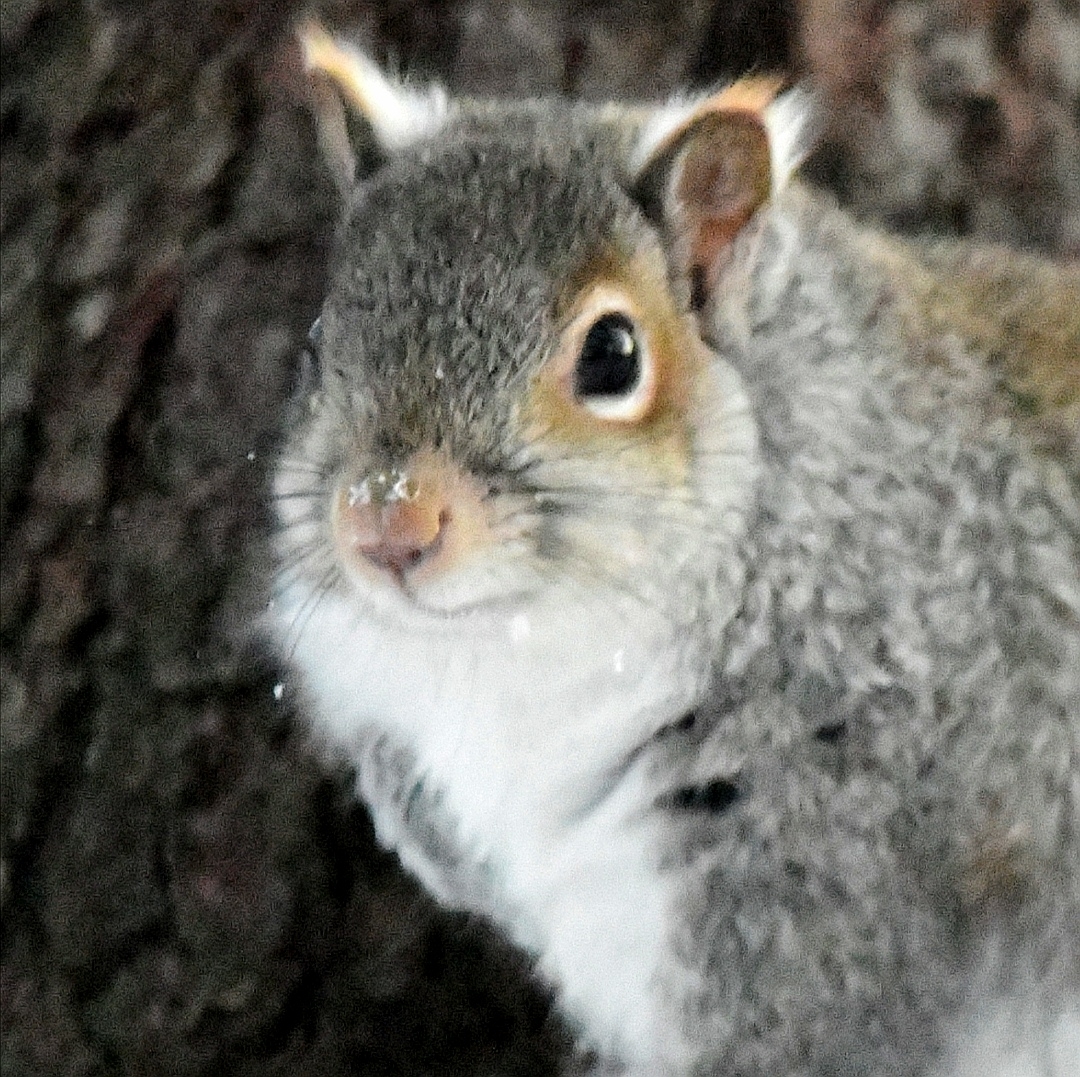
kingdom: Animalia
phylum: Chordata
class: Mammalia
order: Rodentia
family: Sciuridae
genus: Sciurus
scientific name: Sciurus carolinensis
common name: Eastern gray squirrel
